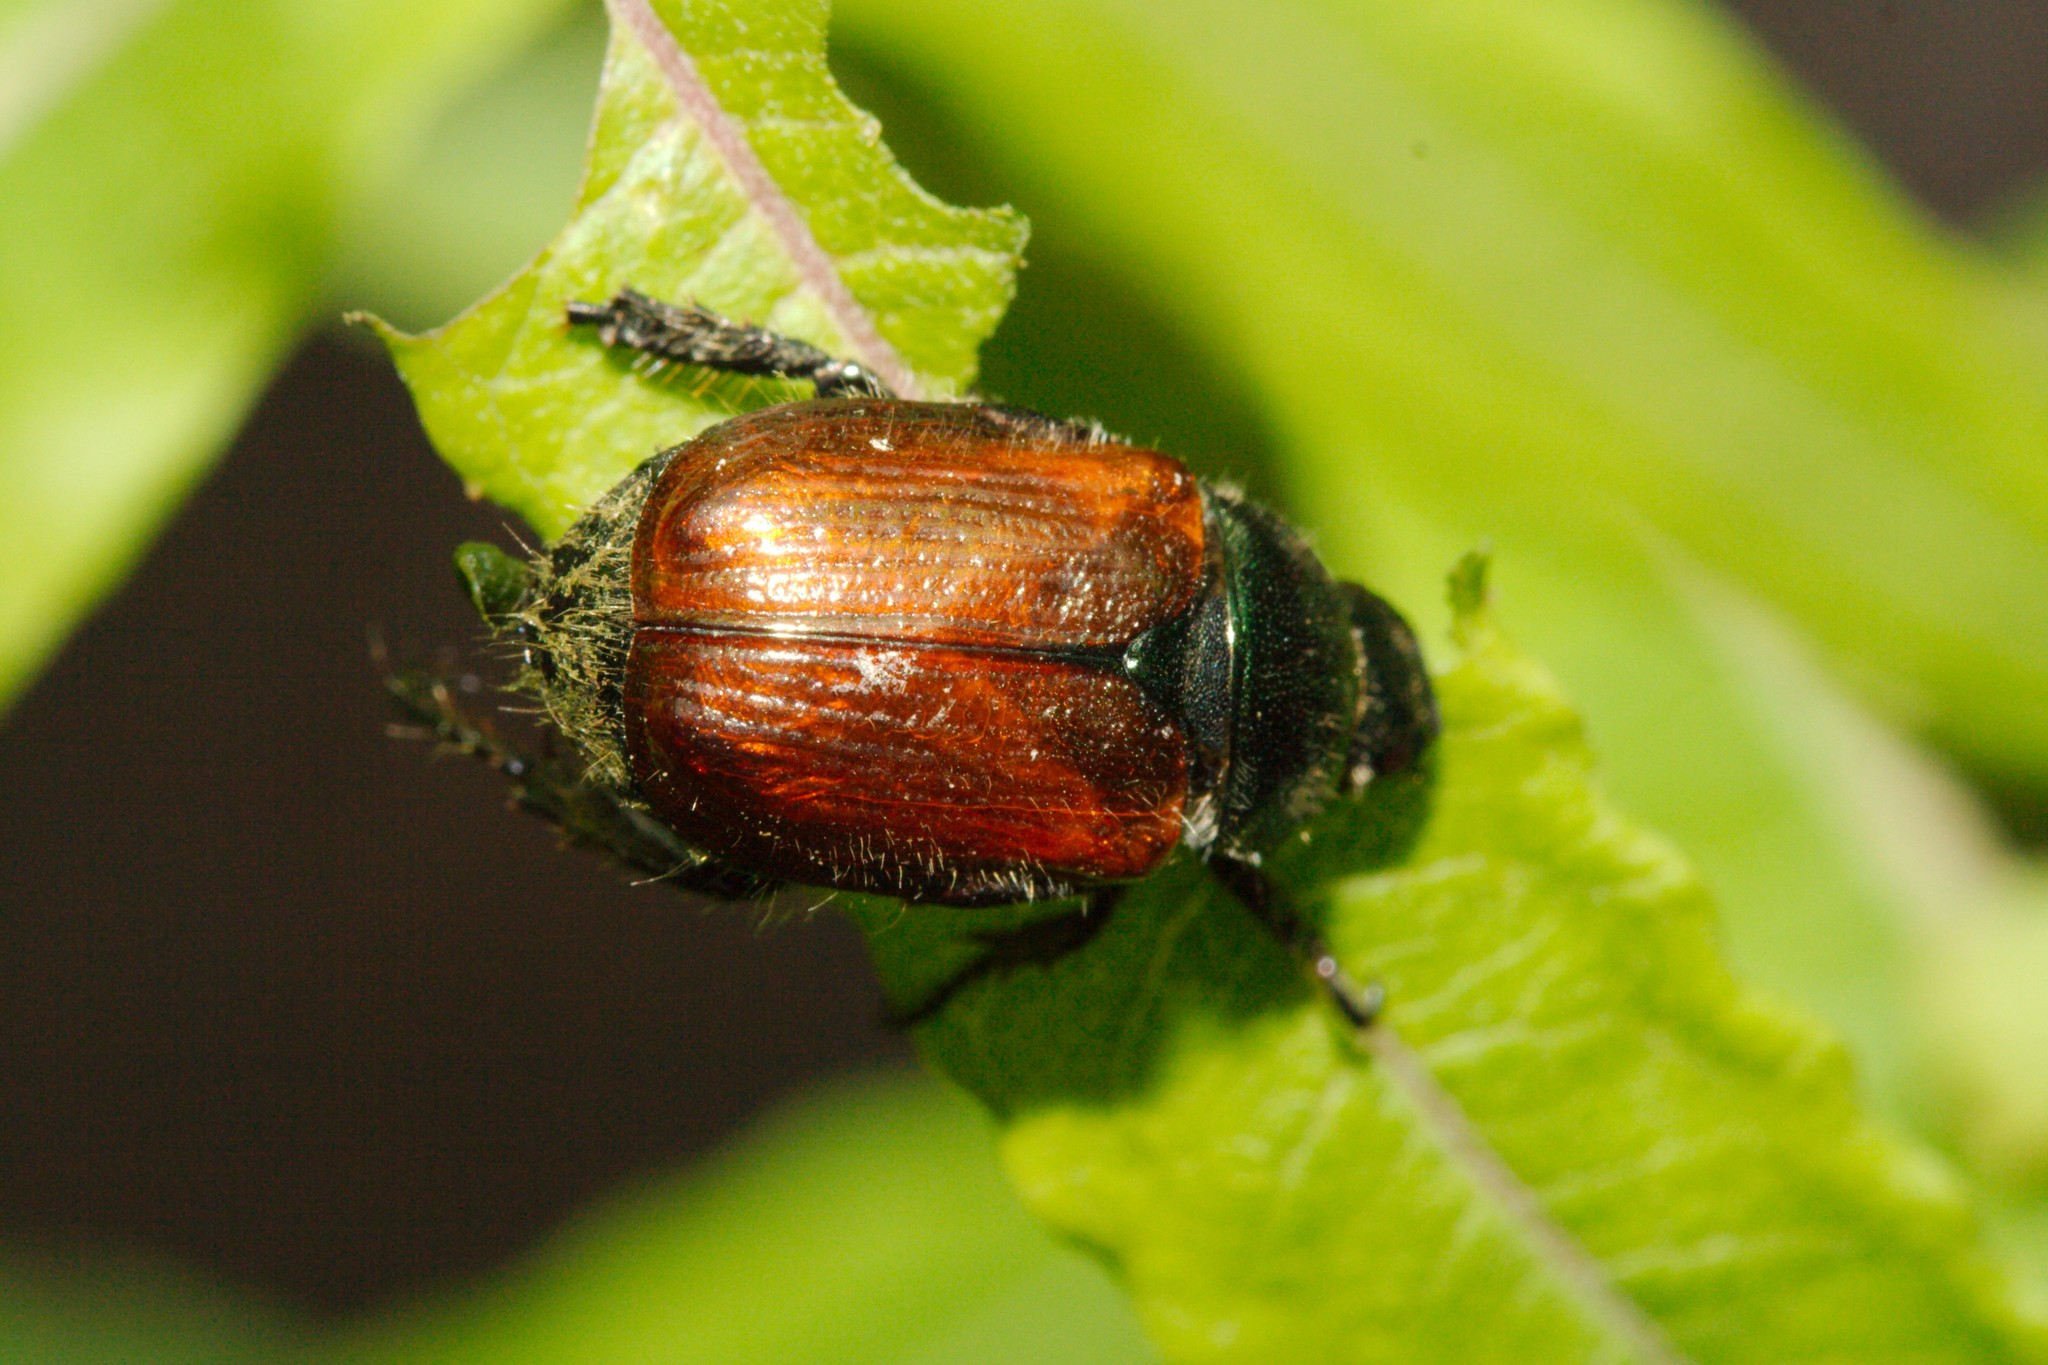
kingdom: Animalia
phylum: Arthropoda
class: Insecta
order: Coleoptera
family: Scarabaeidae
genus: Phyllopertha
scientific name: Phyllopertha horticola
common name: Garden chafer
